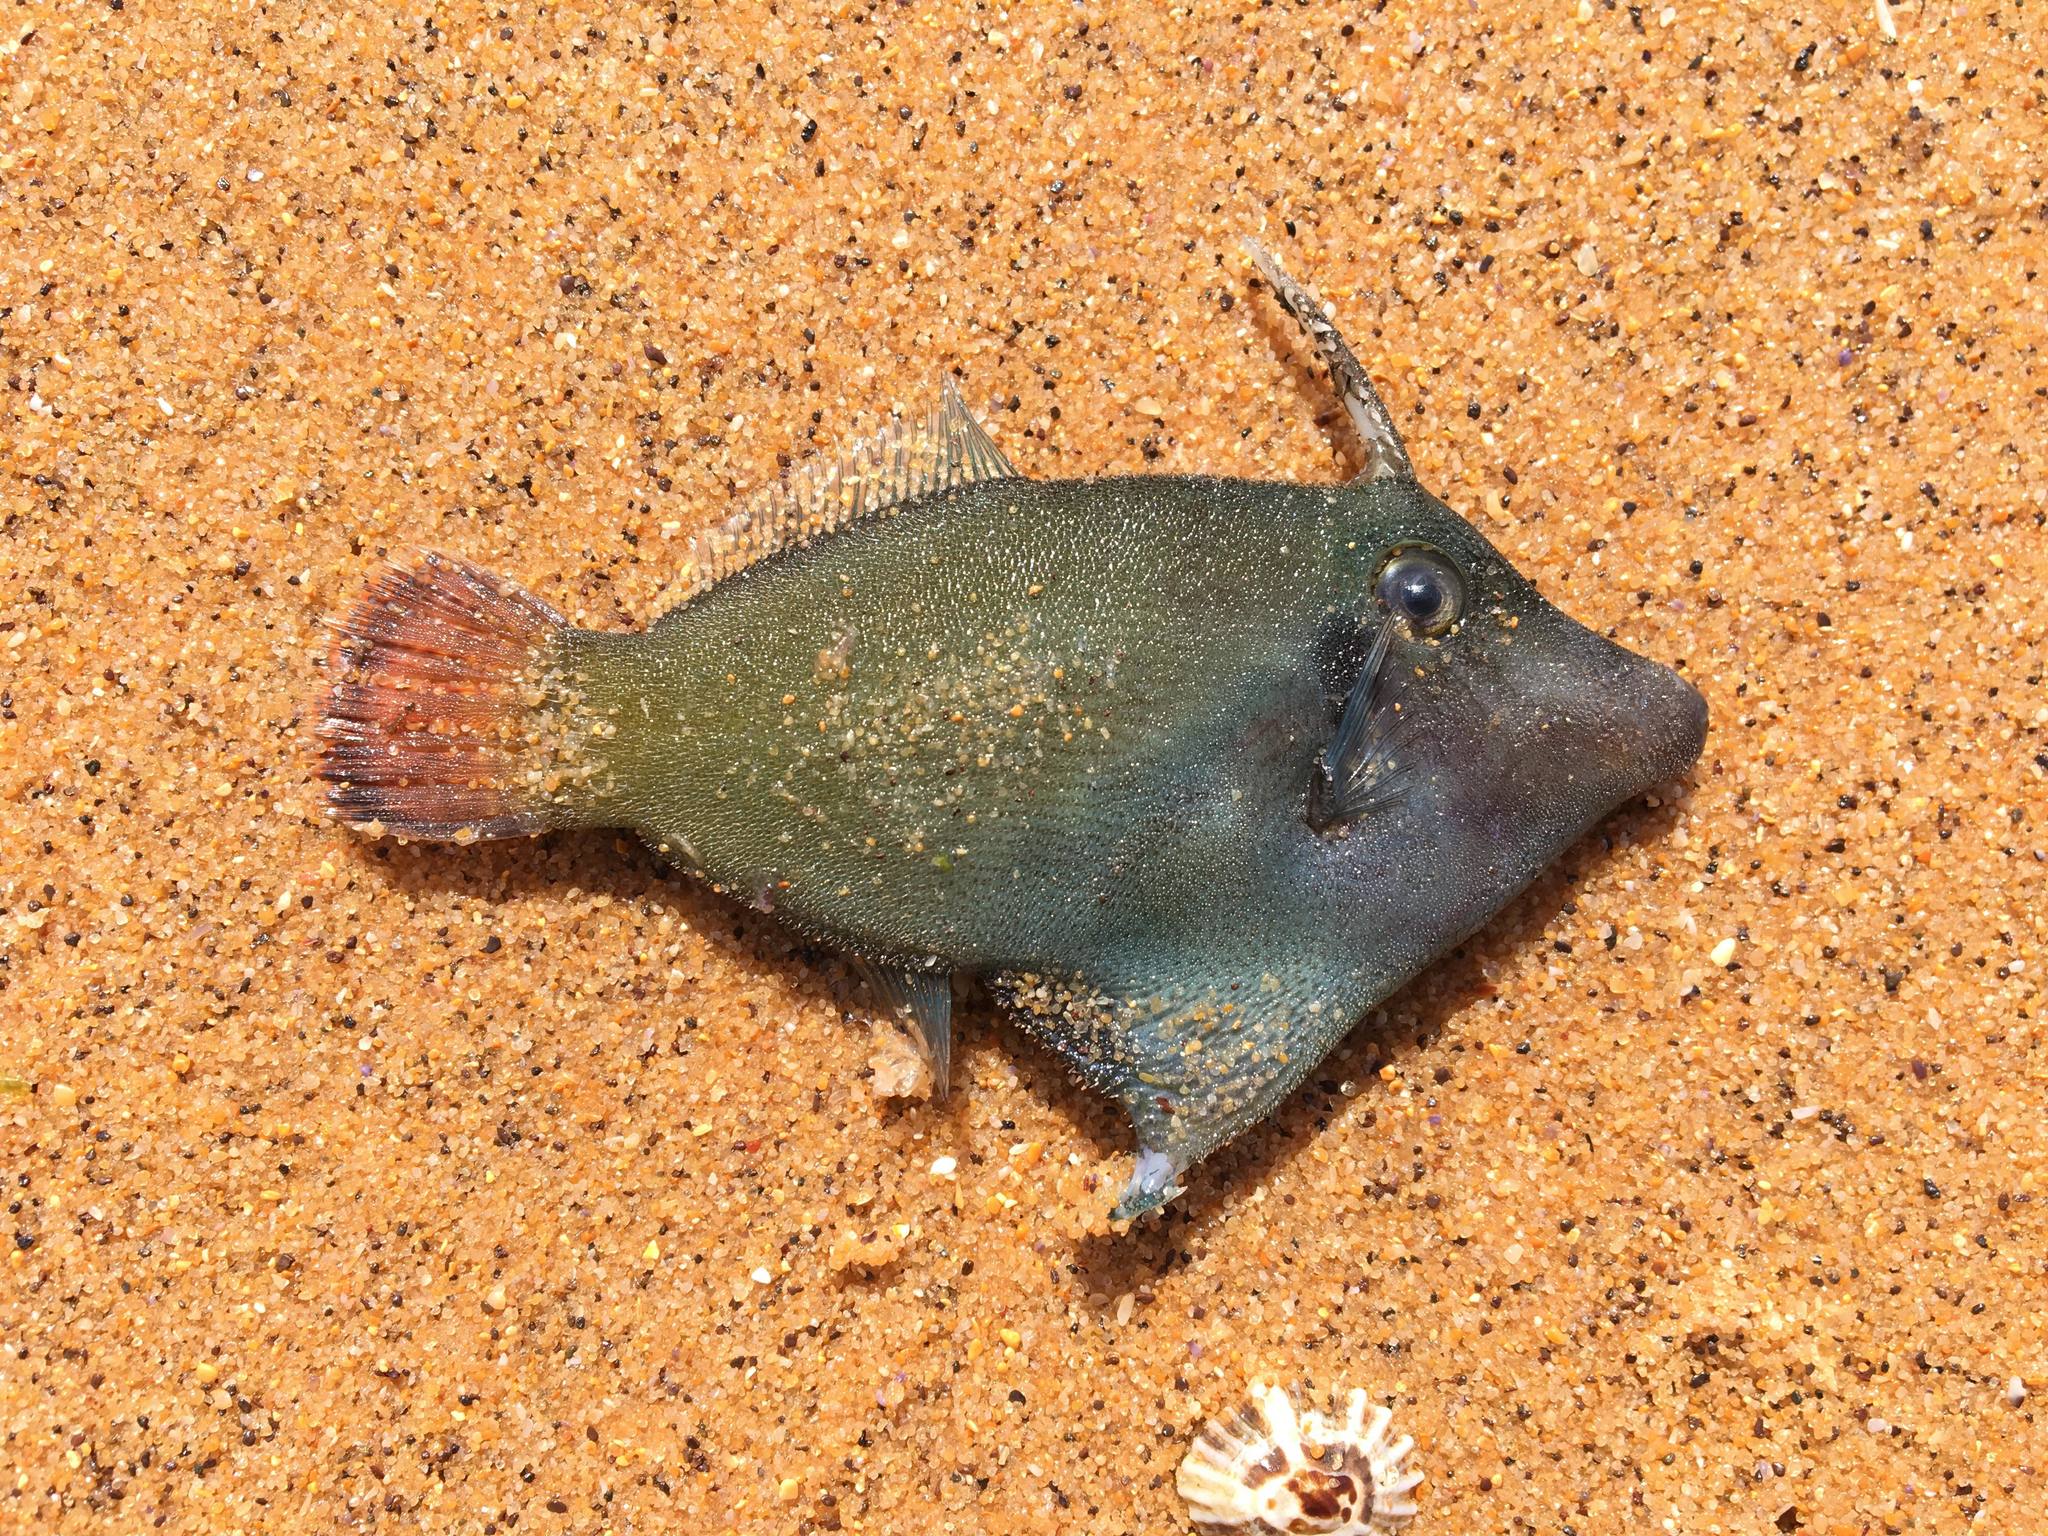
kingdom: Animalia
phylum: Chordata
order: Tetraodontiformes
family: Monacanthidae
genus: Pervagor
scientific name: Pervagor janthinosoma
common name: Blackbar filefish
